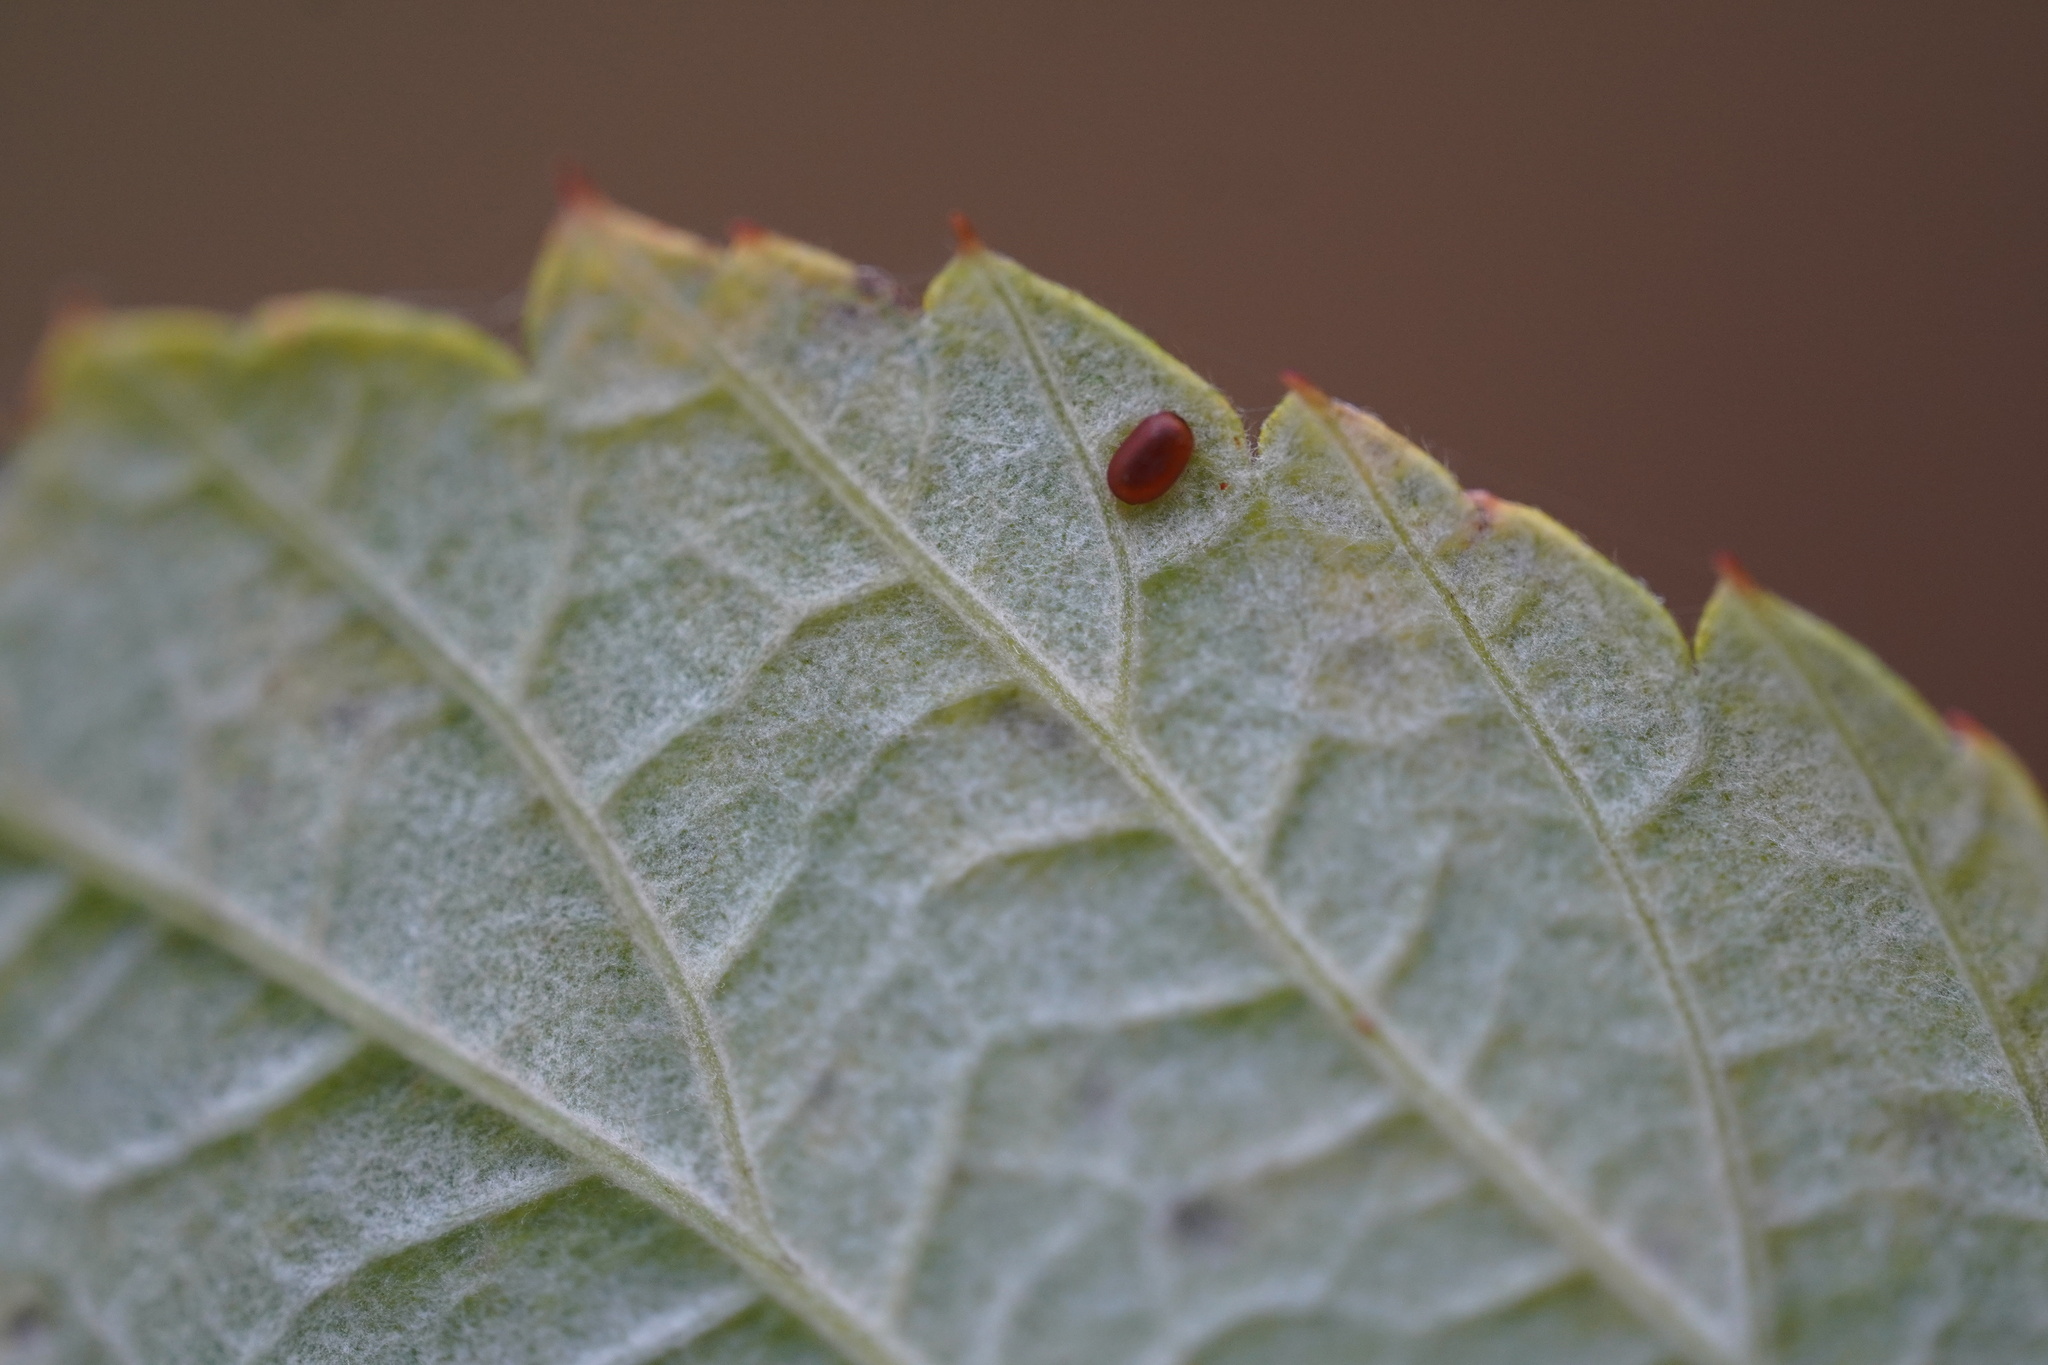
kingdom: Animalia
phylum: Arthropoda
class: Insecta
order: Lepidoptera
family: Sesiidae
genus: Pennisetia
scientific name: Pennisetia hylaeiformis
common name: Raspberry clearwing
